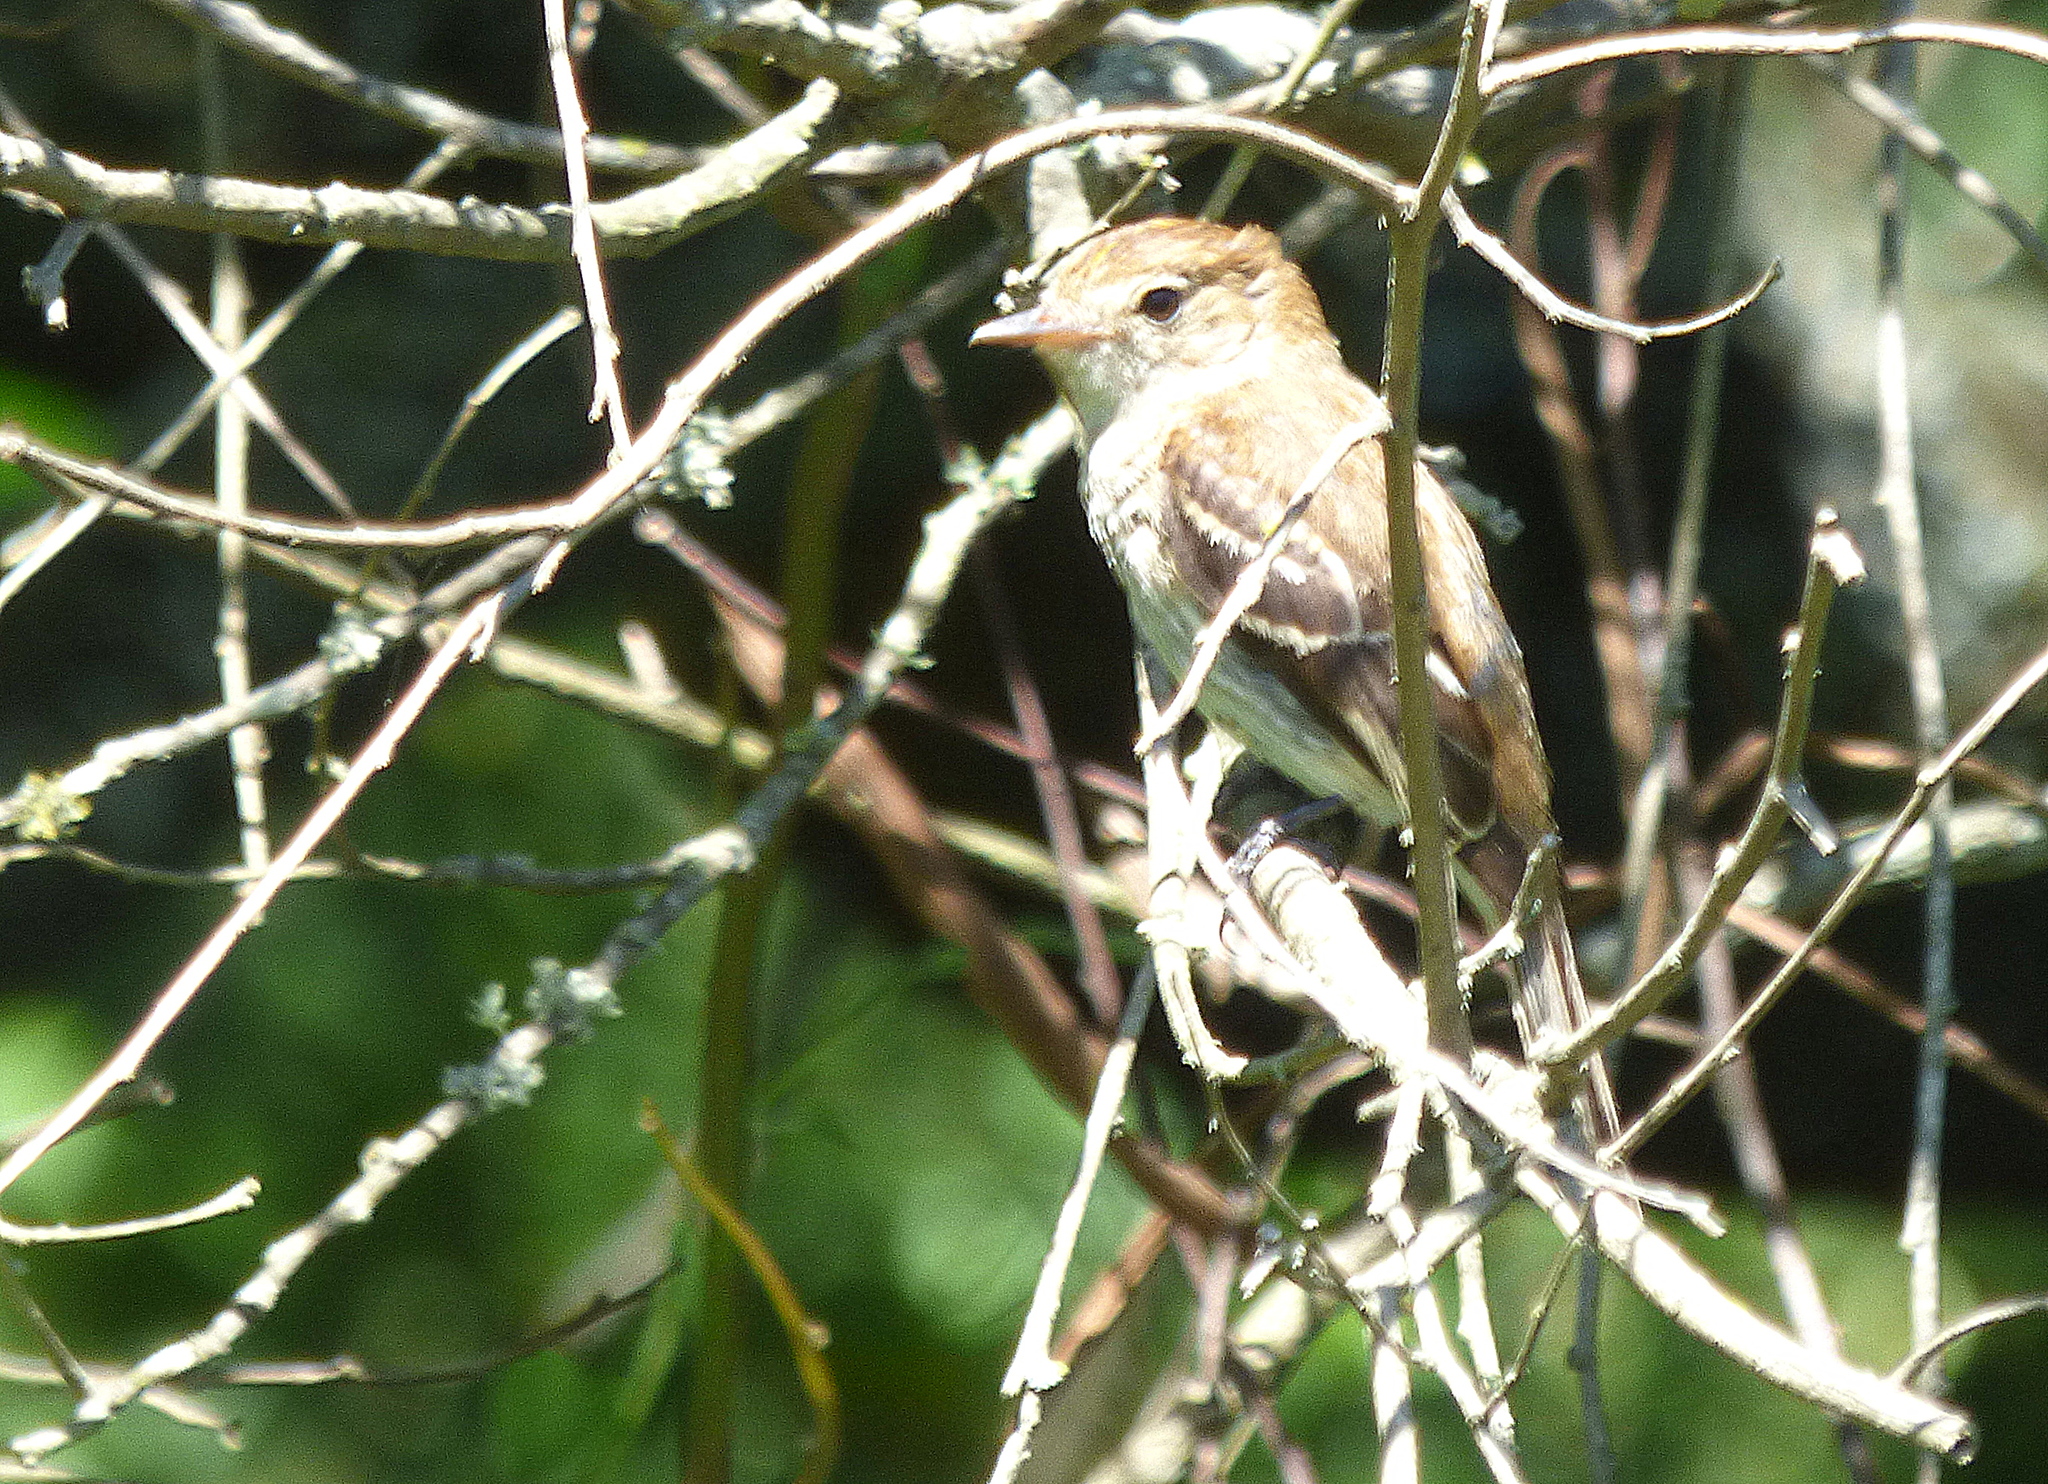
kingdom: Animalia
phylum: Chordata
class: Aves
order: Passeriformes
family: Tyrannidae
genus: Myiophobus
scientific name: Myiophobus fasciatus
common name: Bran-colored flycatcher
